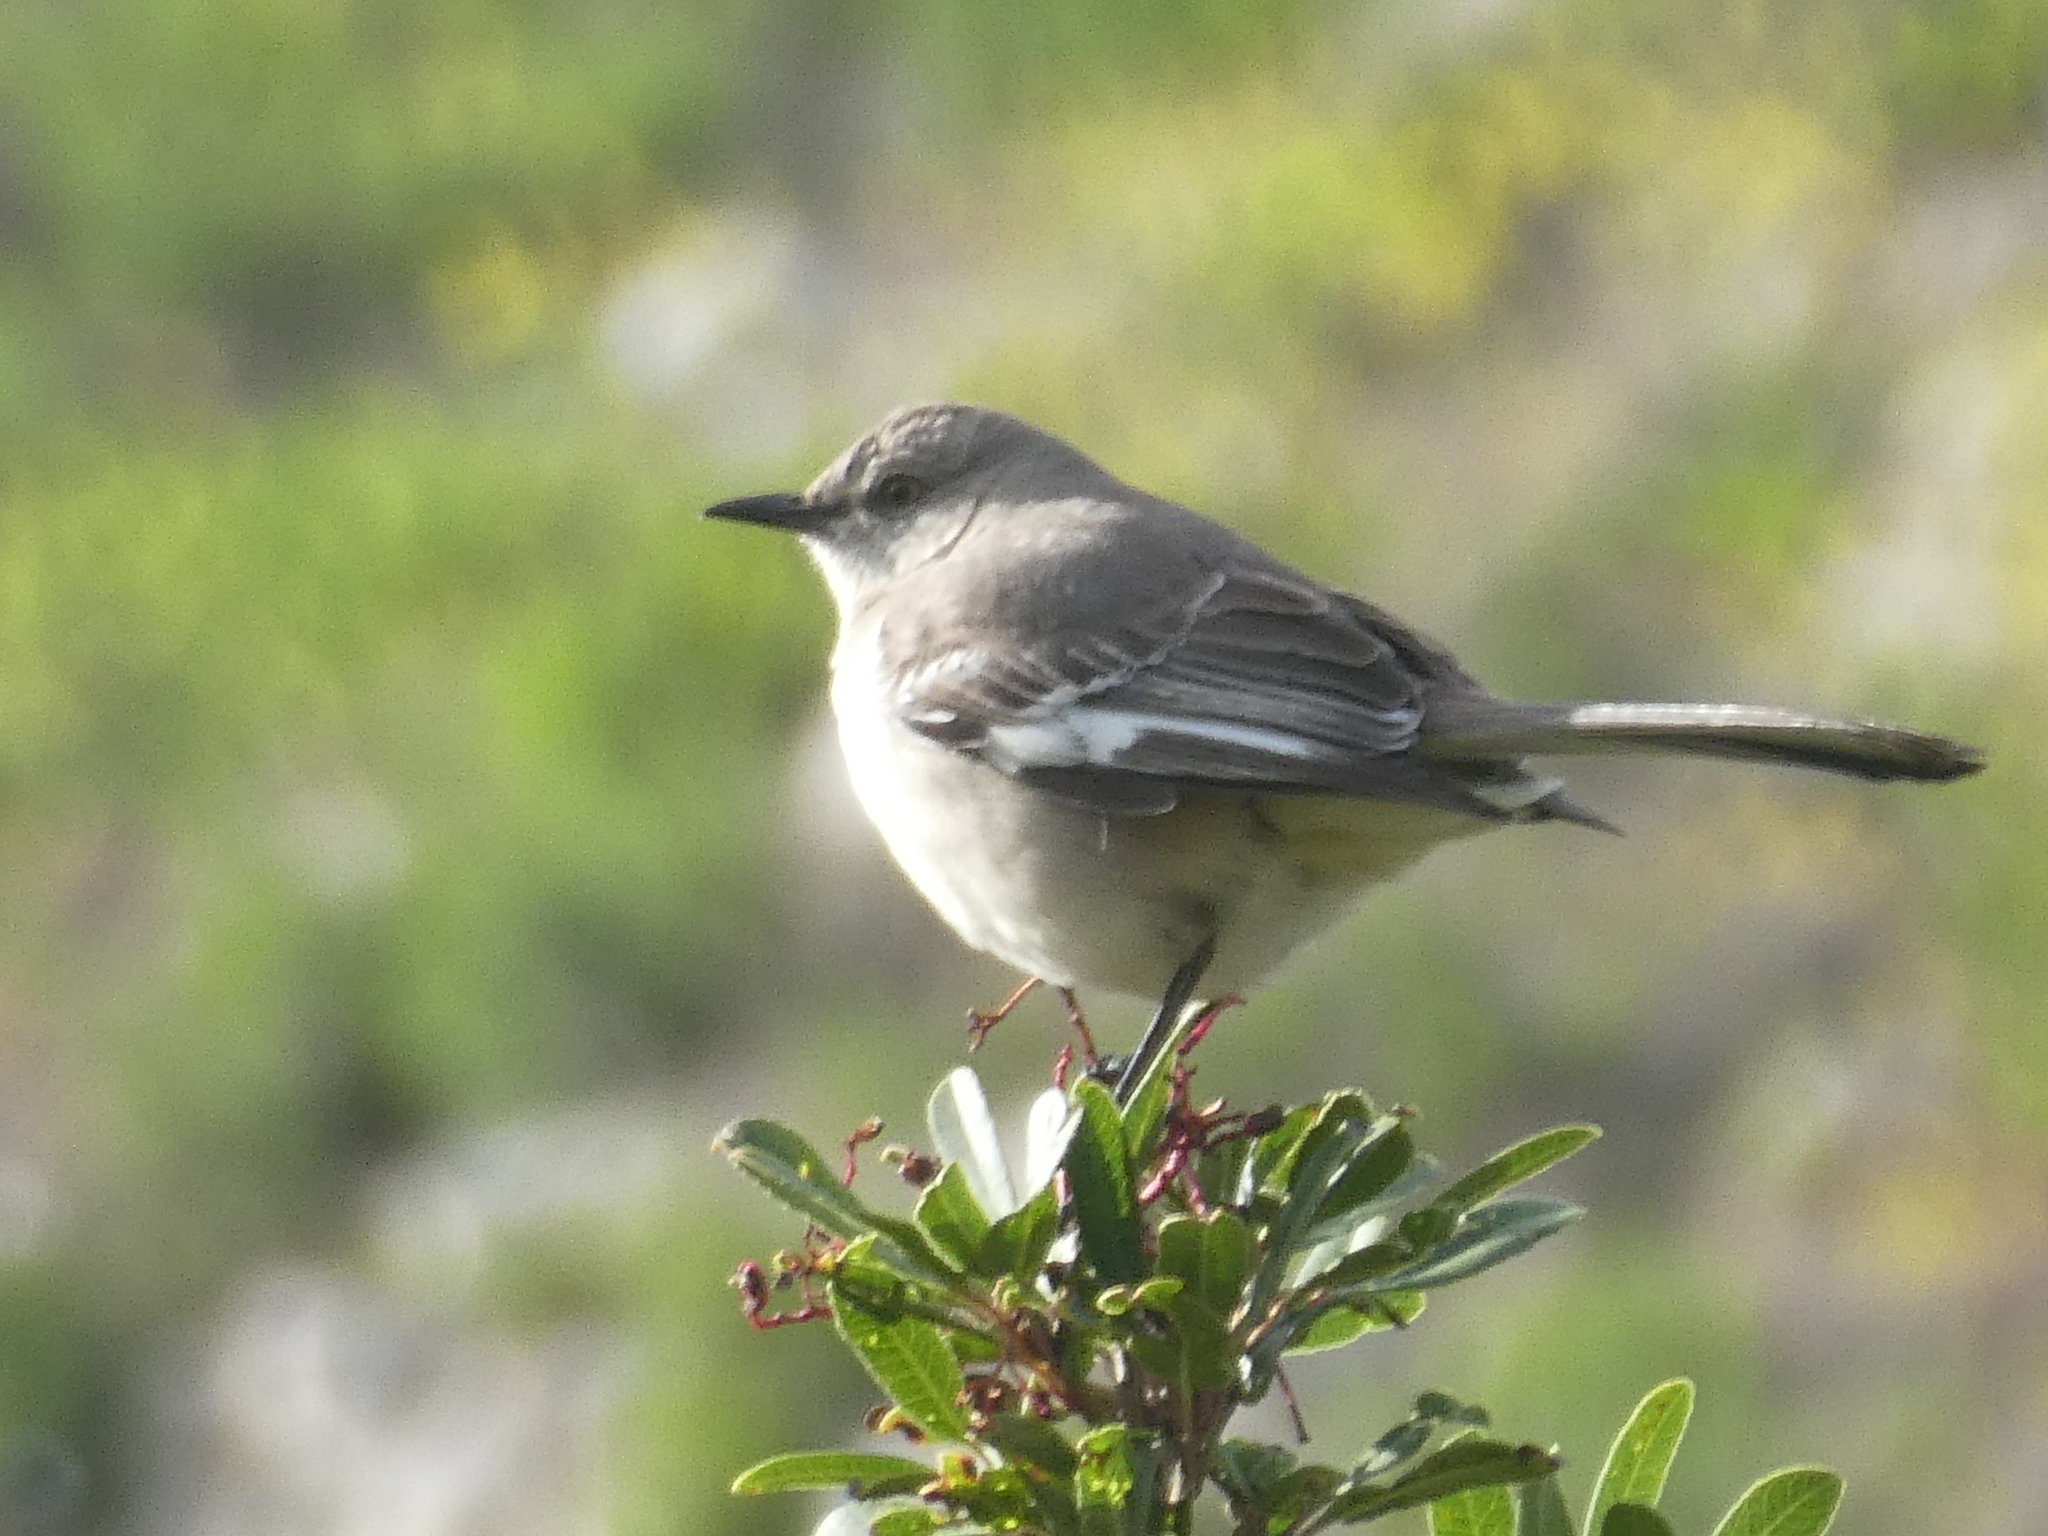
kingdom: Animalia
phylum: Chordata
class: Aves
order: Passeriformes
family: Mimidae
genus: Mimus
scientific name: Mimus polyglottos
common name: Northern mockingbird
